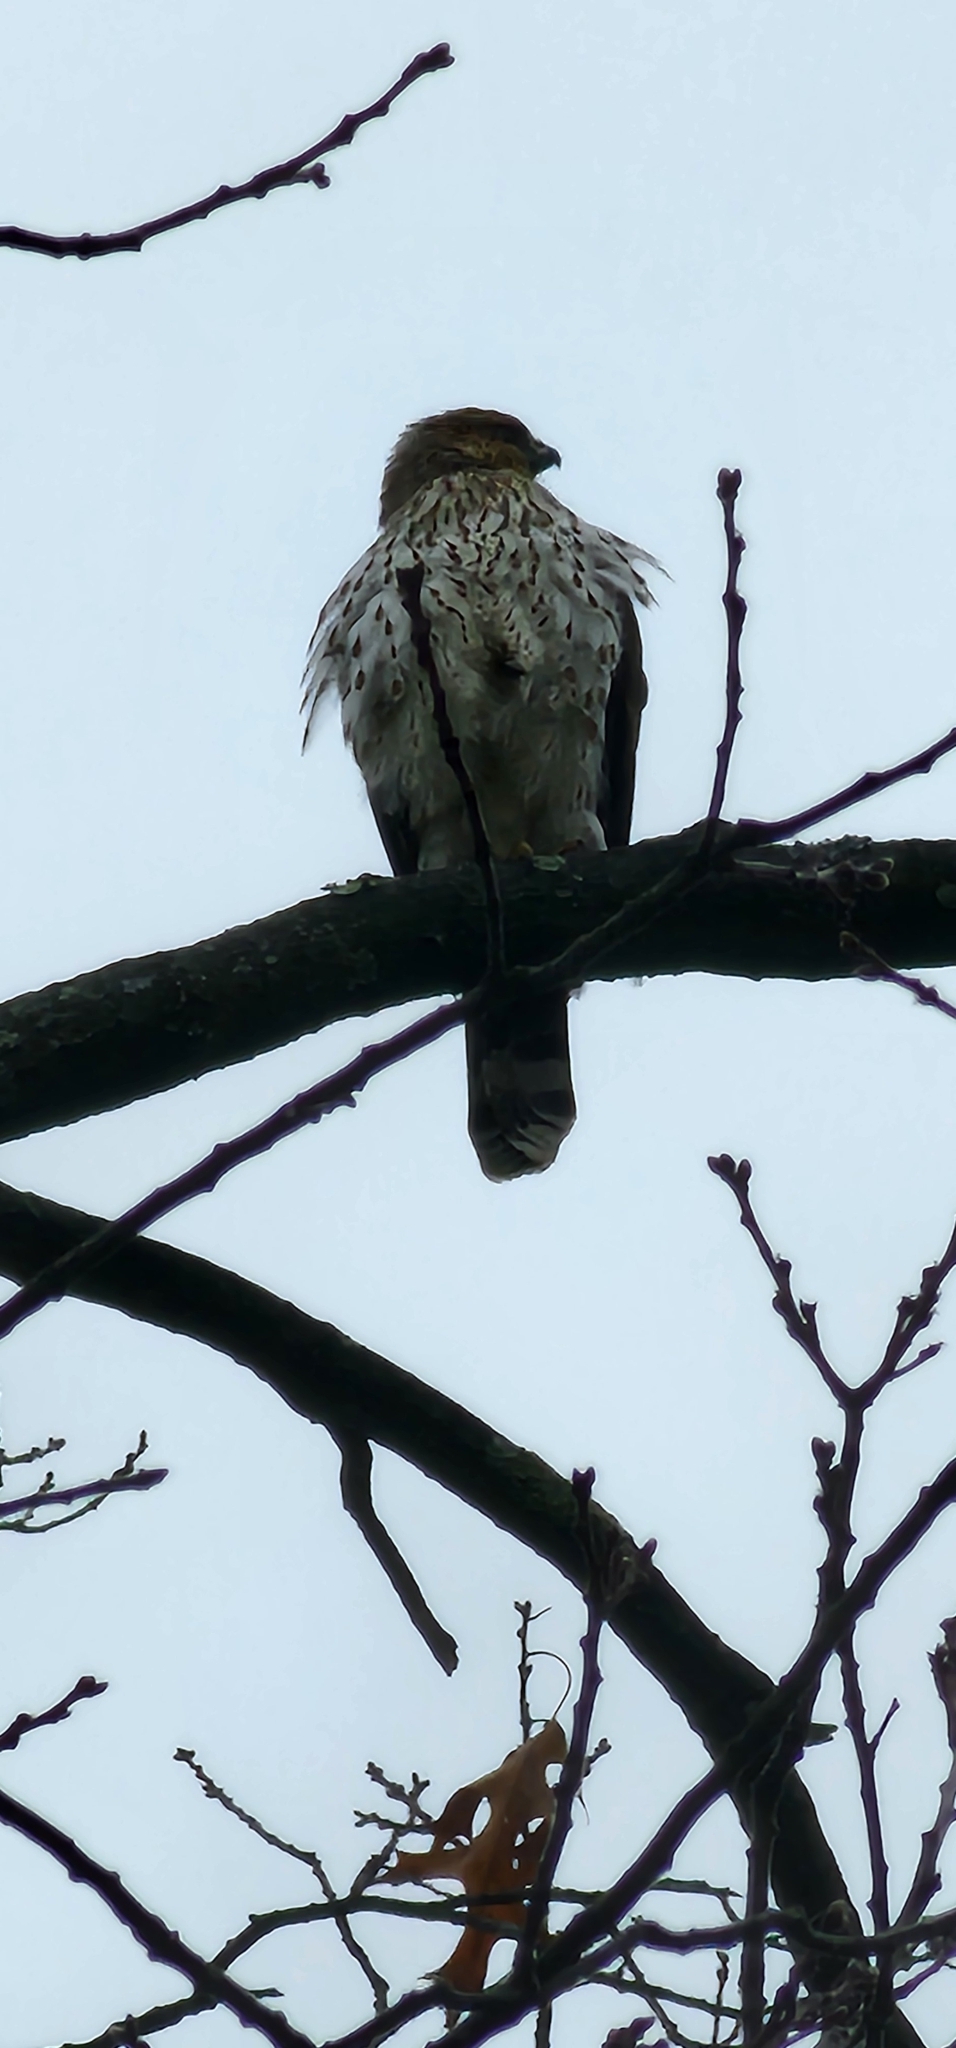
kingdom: Animalia
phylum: Chordata
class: Aves
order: Accipitriformes
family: Accipitridae
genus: Accipiter
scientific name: Accipiter cooperii
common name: Cooper's hawk
